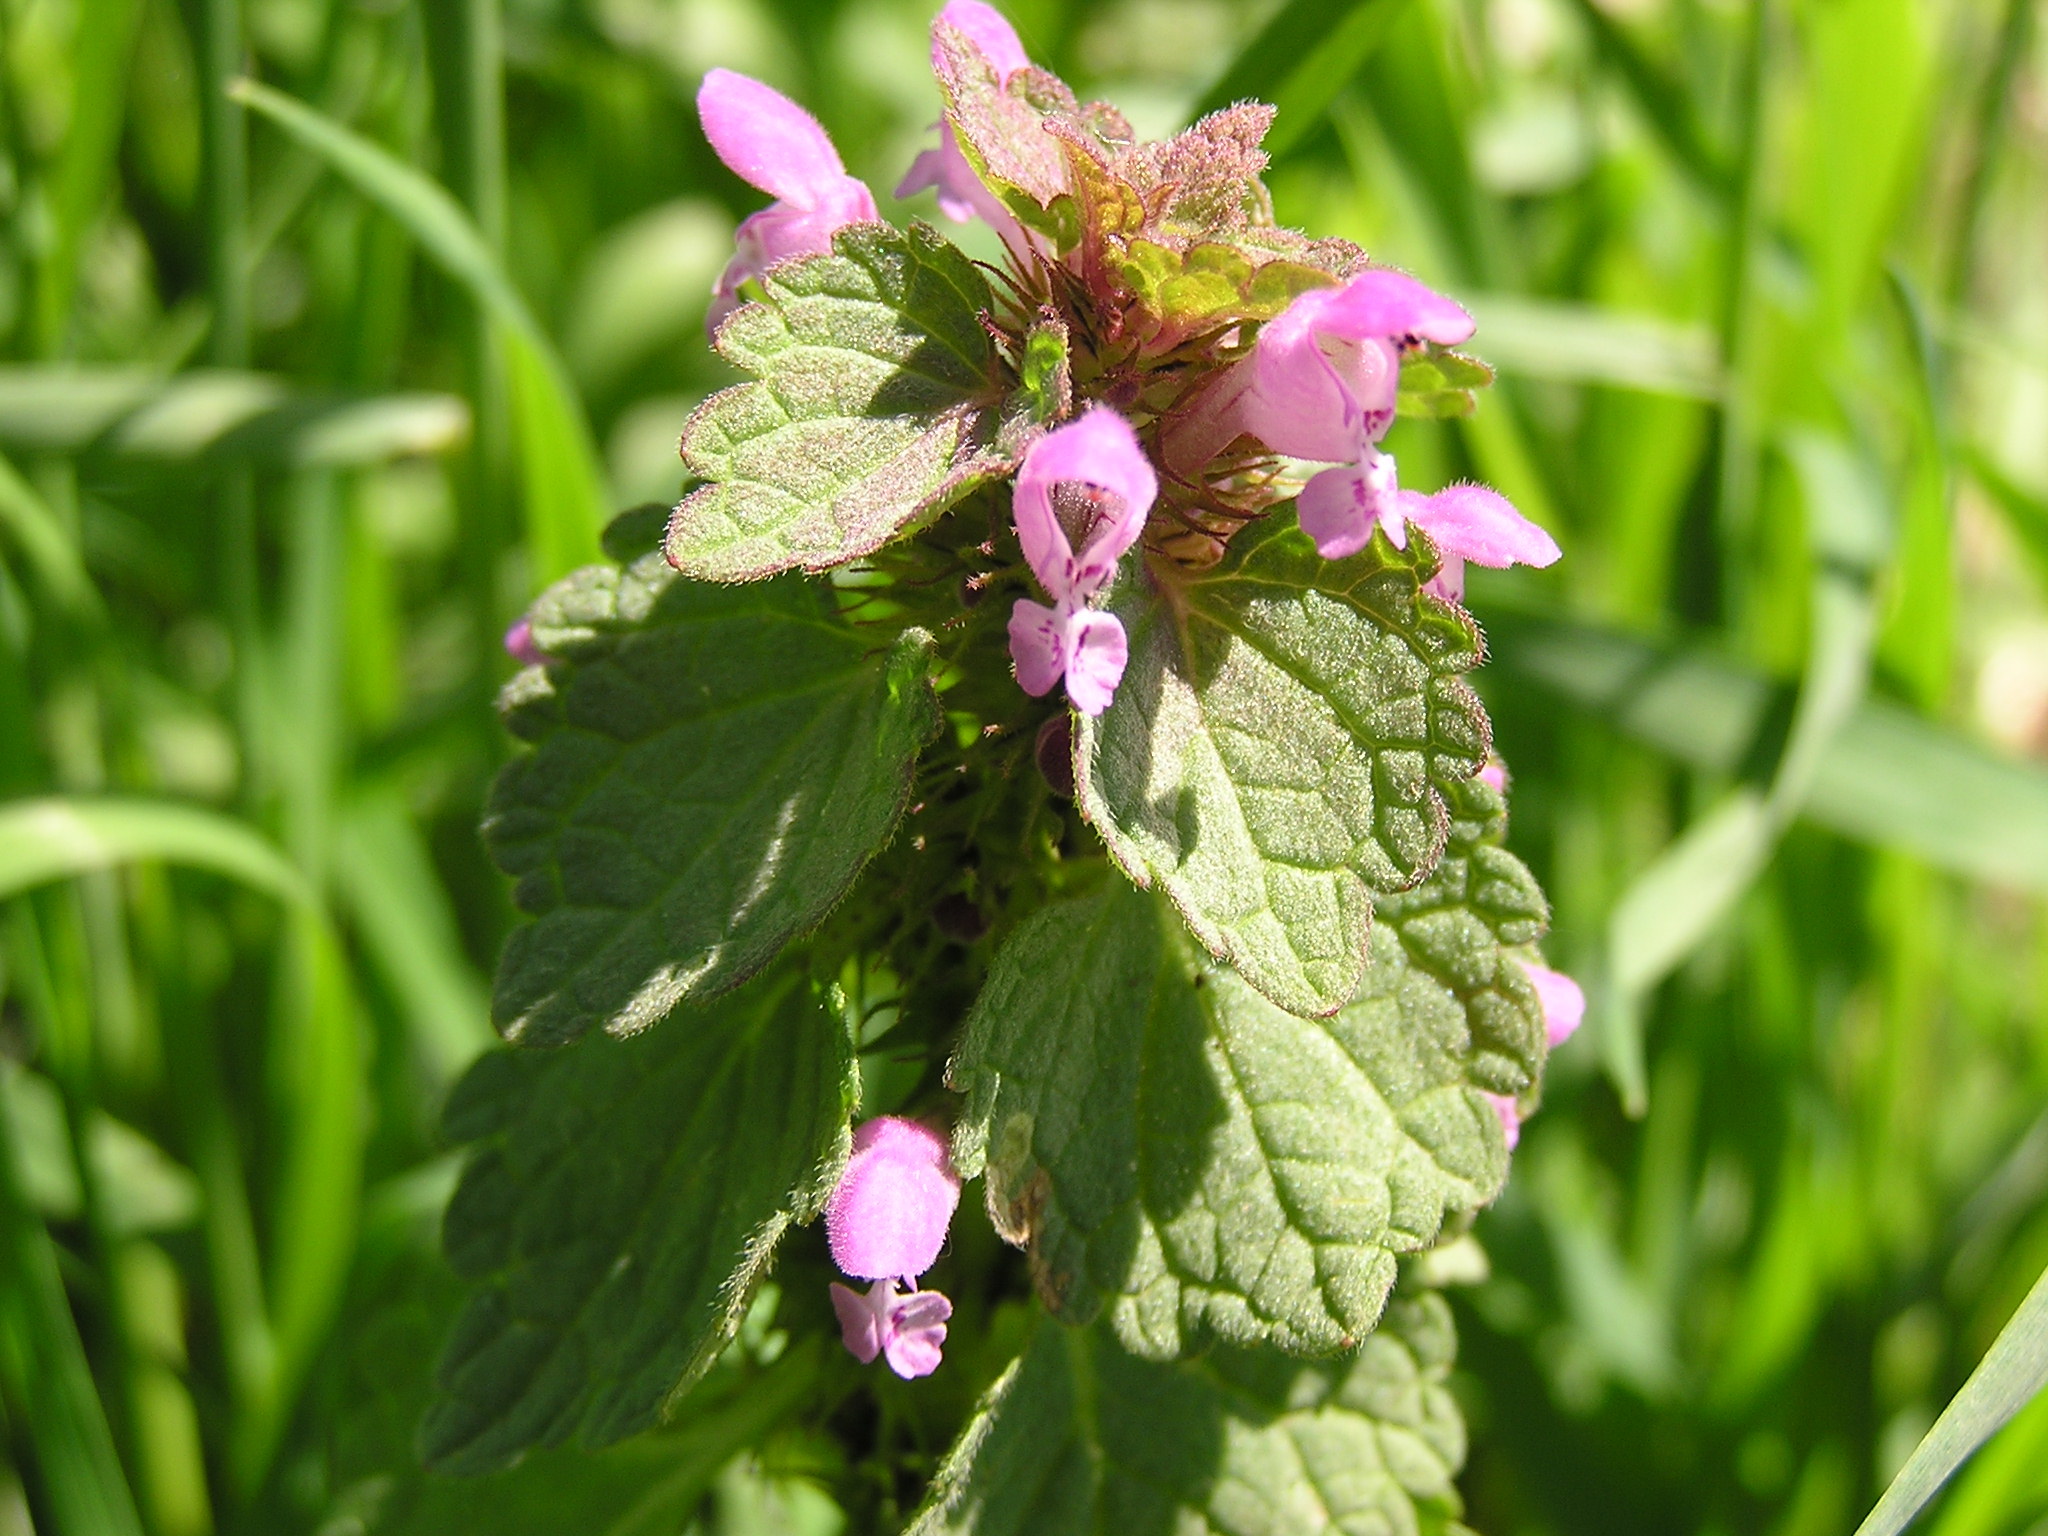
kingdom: Plantae
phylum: Tracheophyta
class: Magnoliopsida
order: Lamiales
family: Lamiaceae
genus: Lamium
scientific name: Lamium purpureum
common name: Red dead-nettle
